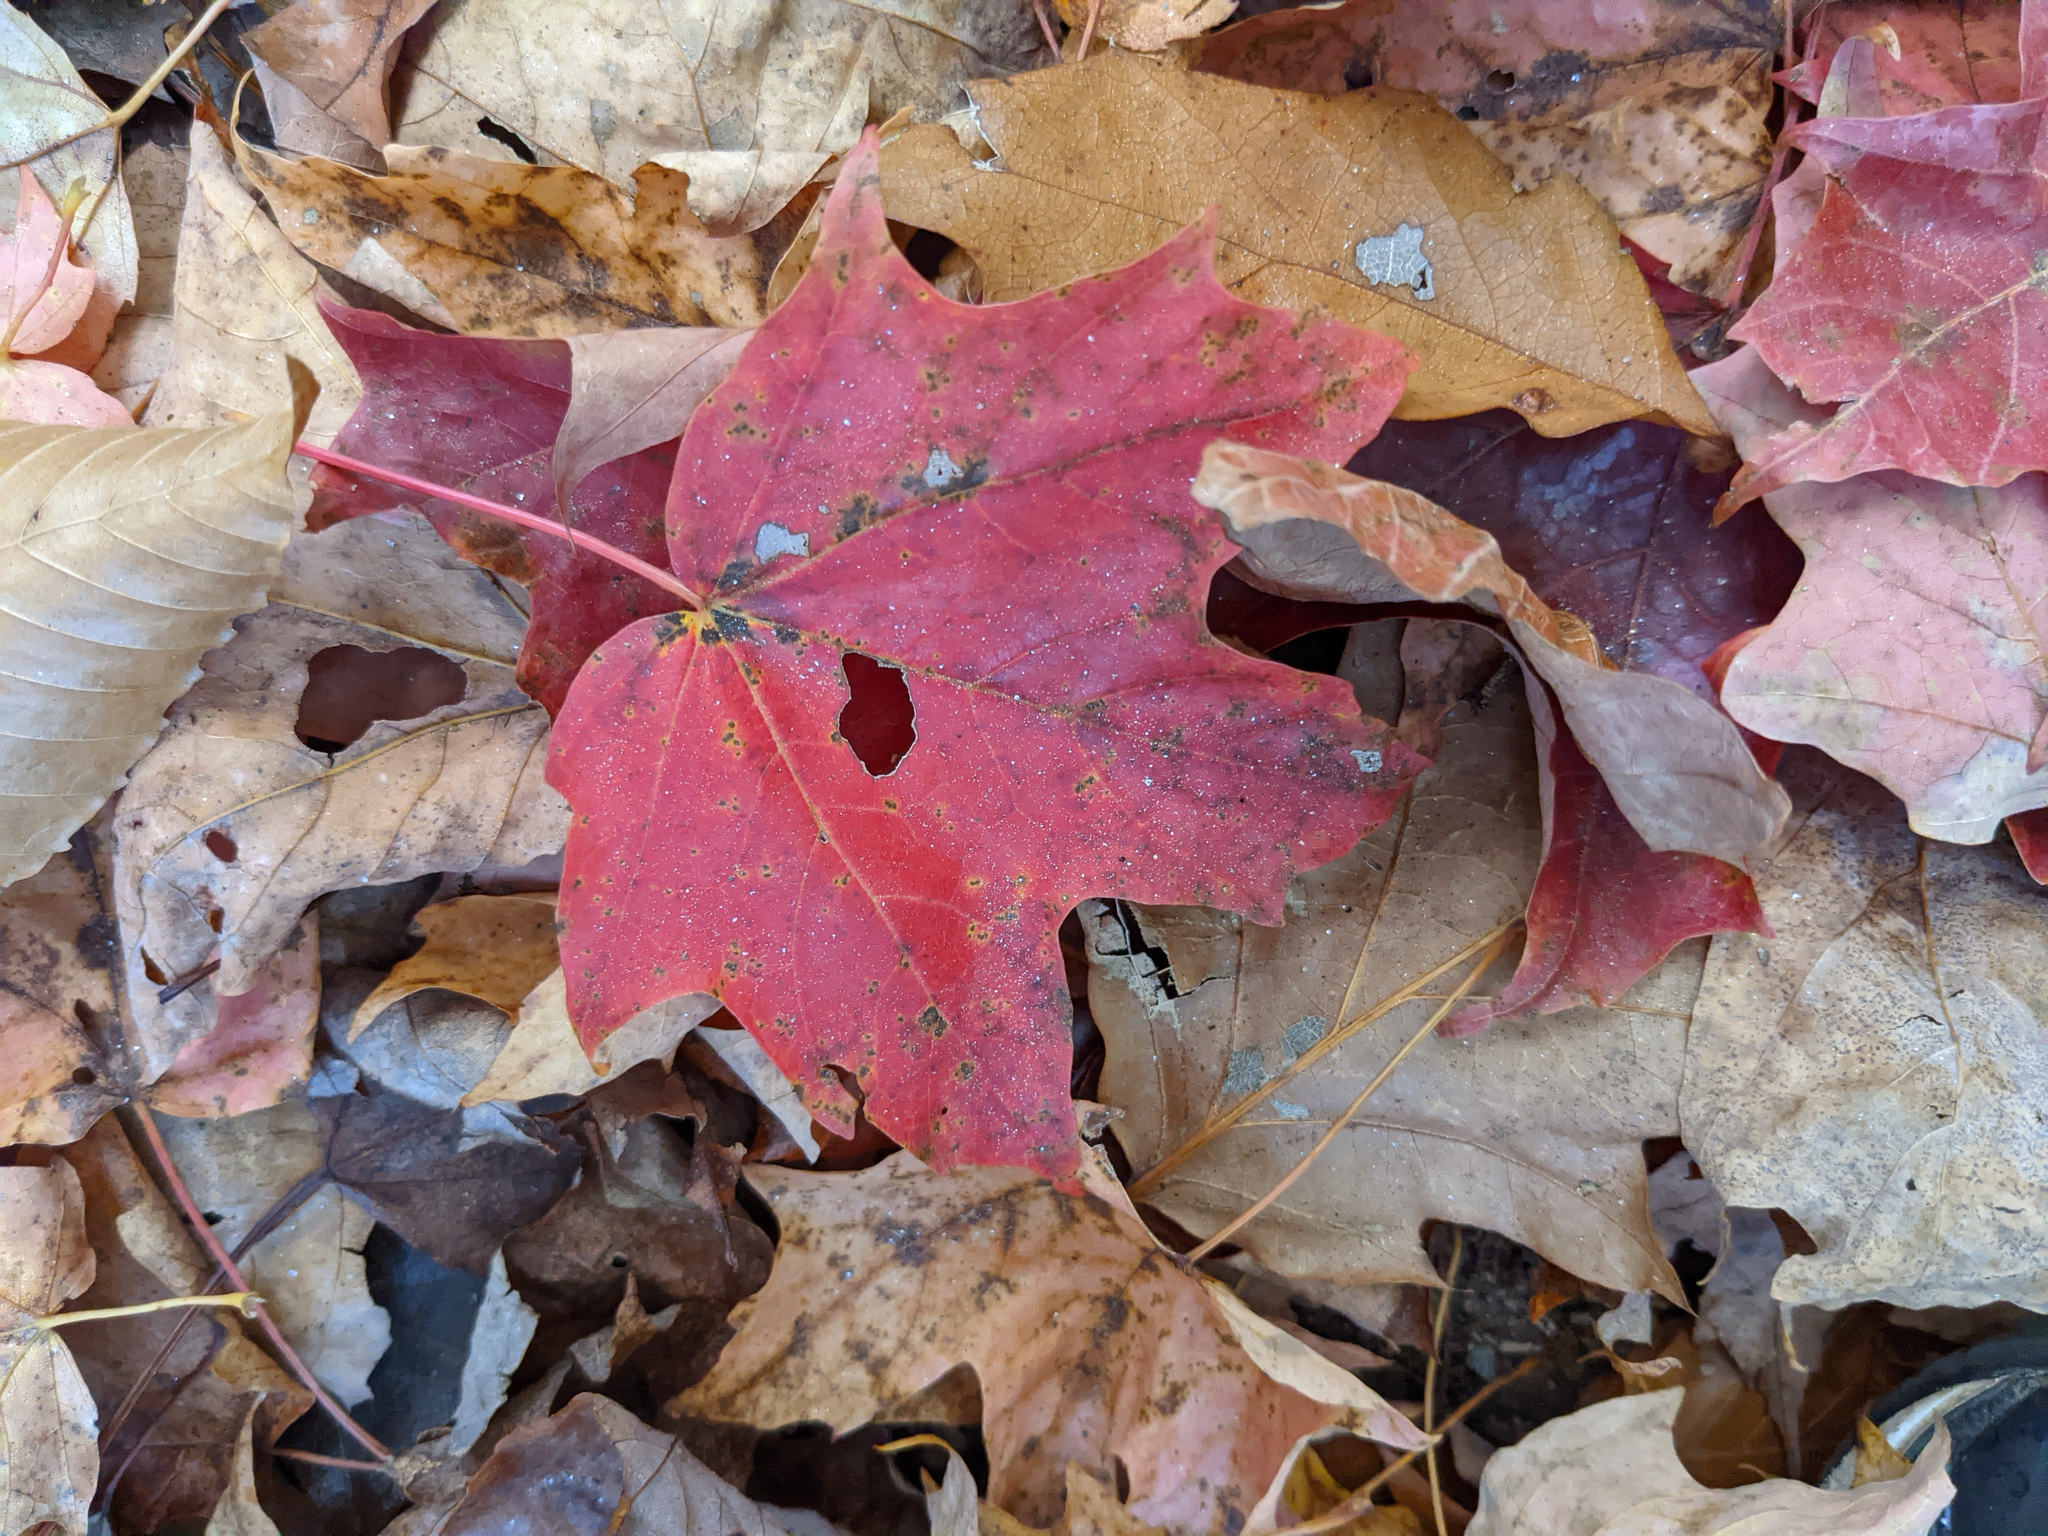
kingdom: Plantae
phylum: Tracheophyta
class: Magnoliopsida
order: Sapindales
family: Sapindaceae
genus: Acer
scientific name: Acer saccharum
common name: Sugar maple
